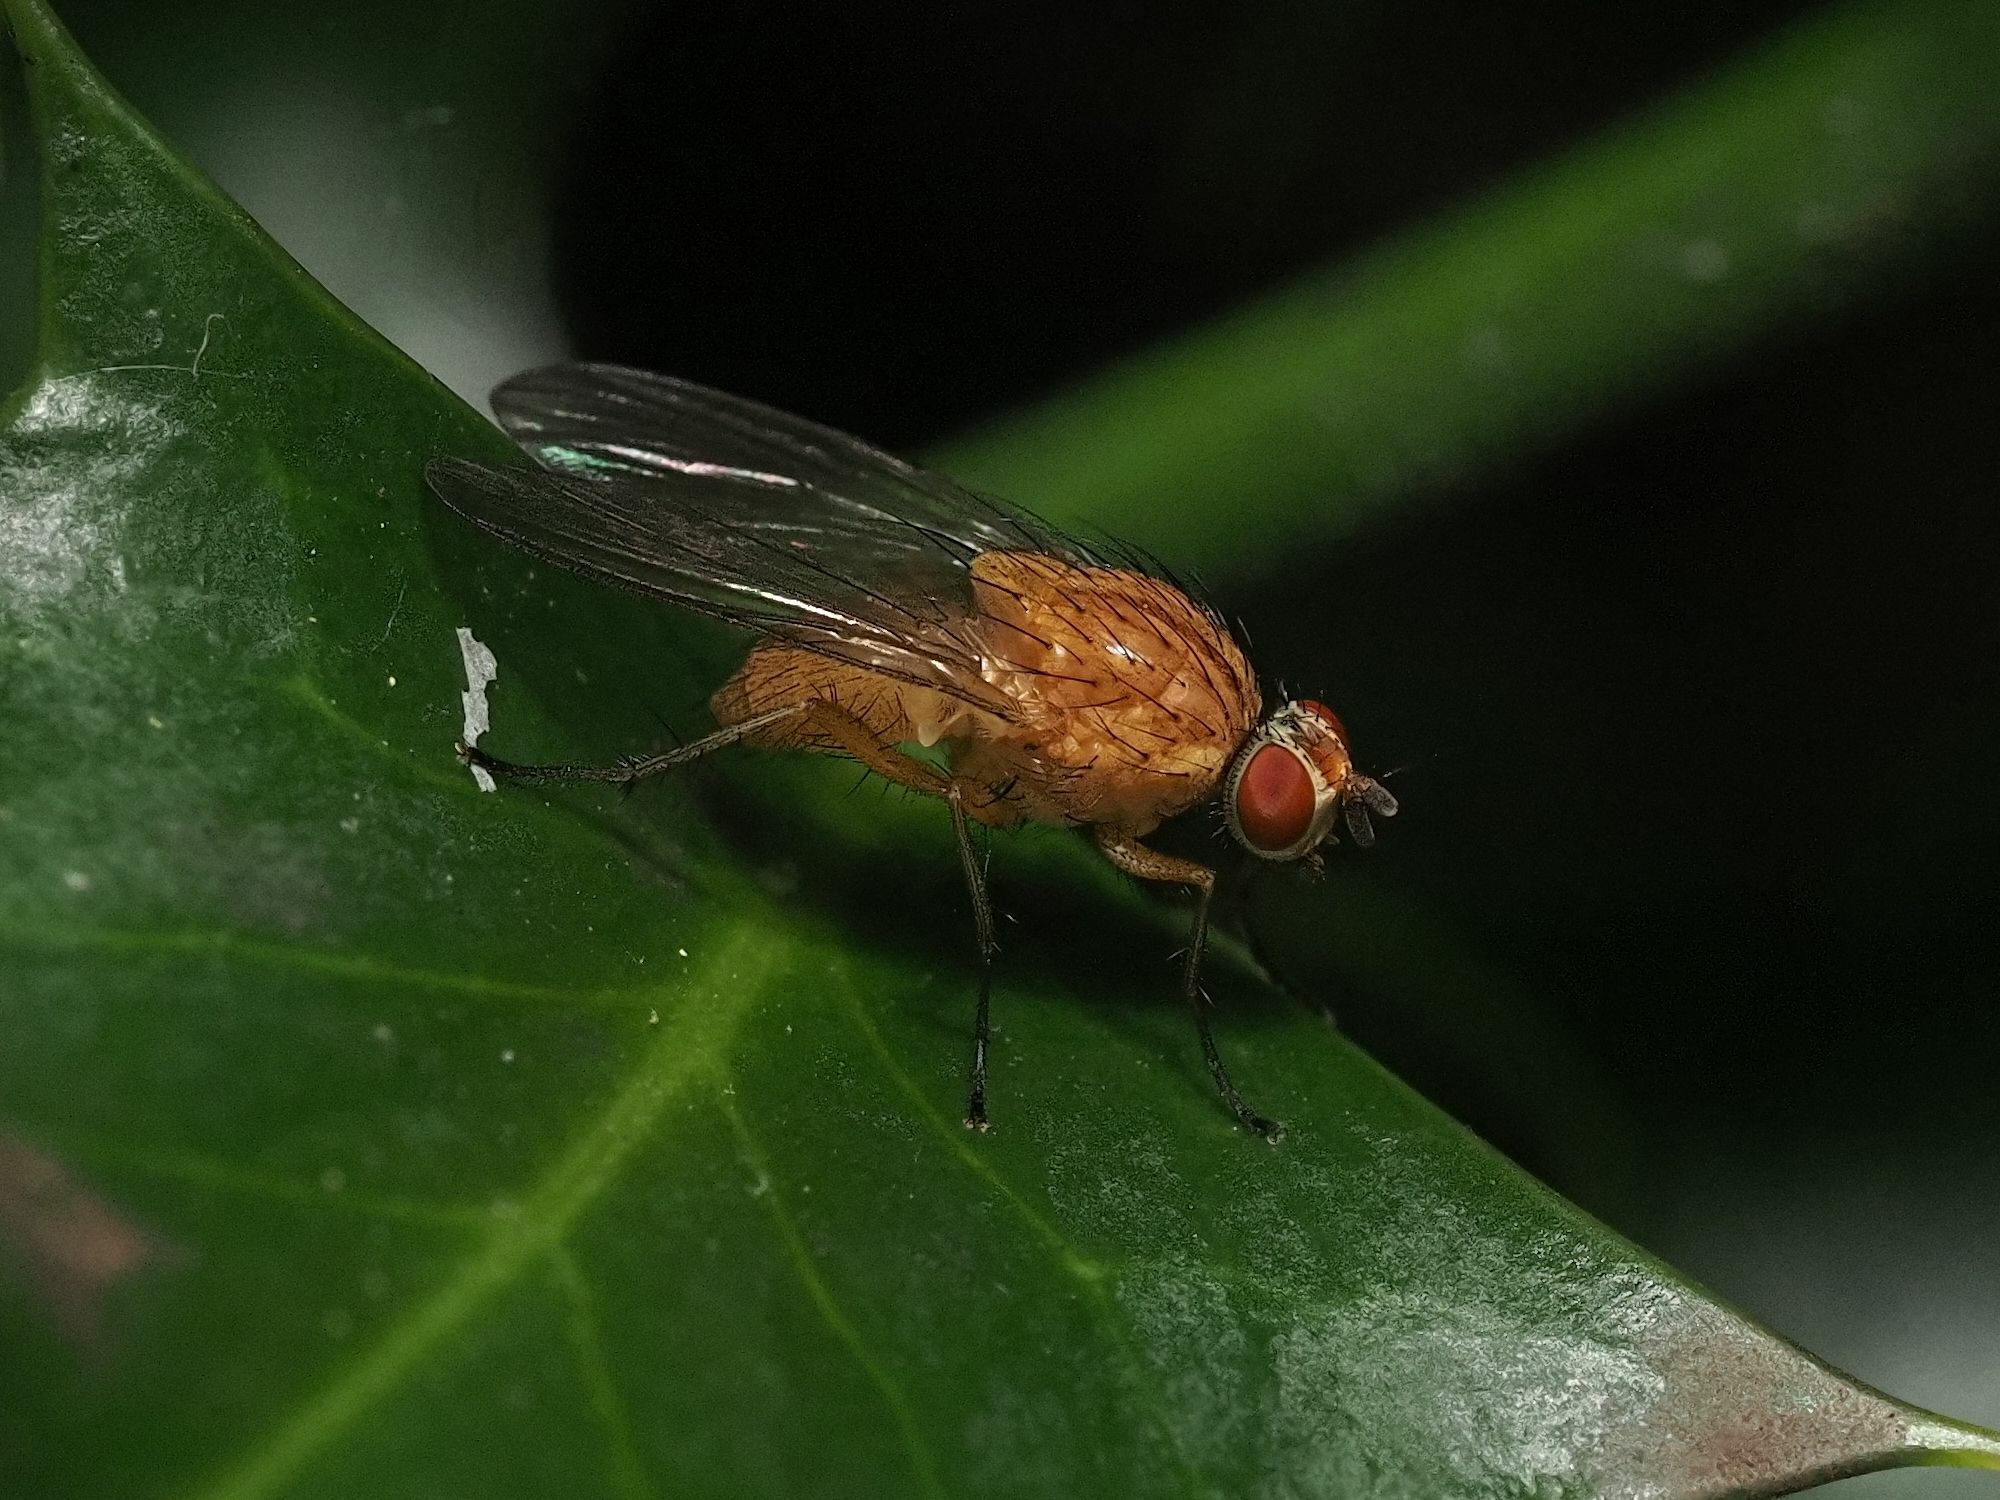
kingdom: Animalia
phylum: Arthropoda
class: Insecta
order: Diptera
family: Anthomyiidae
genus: Pegomya
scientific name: Pegomya testacea
